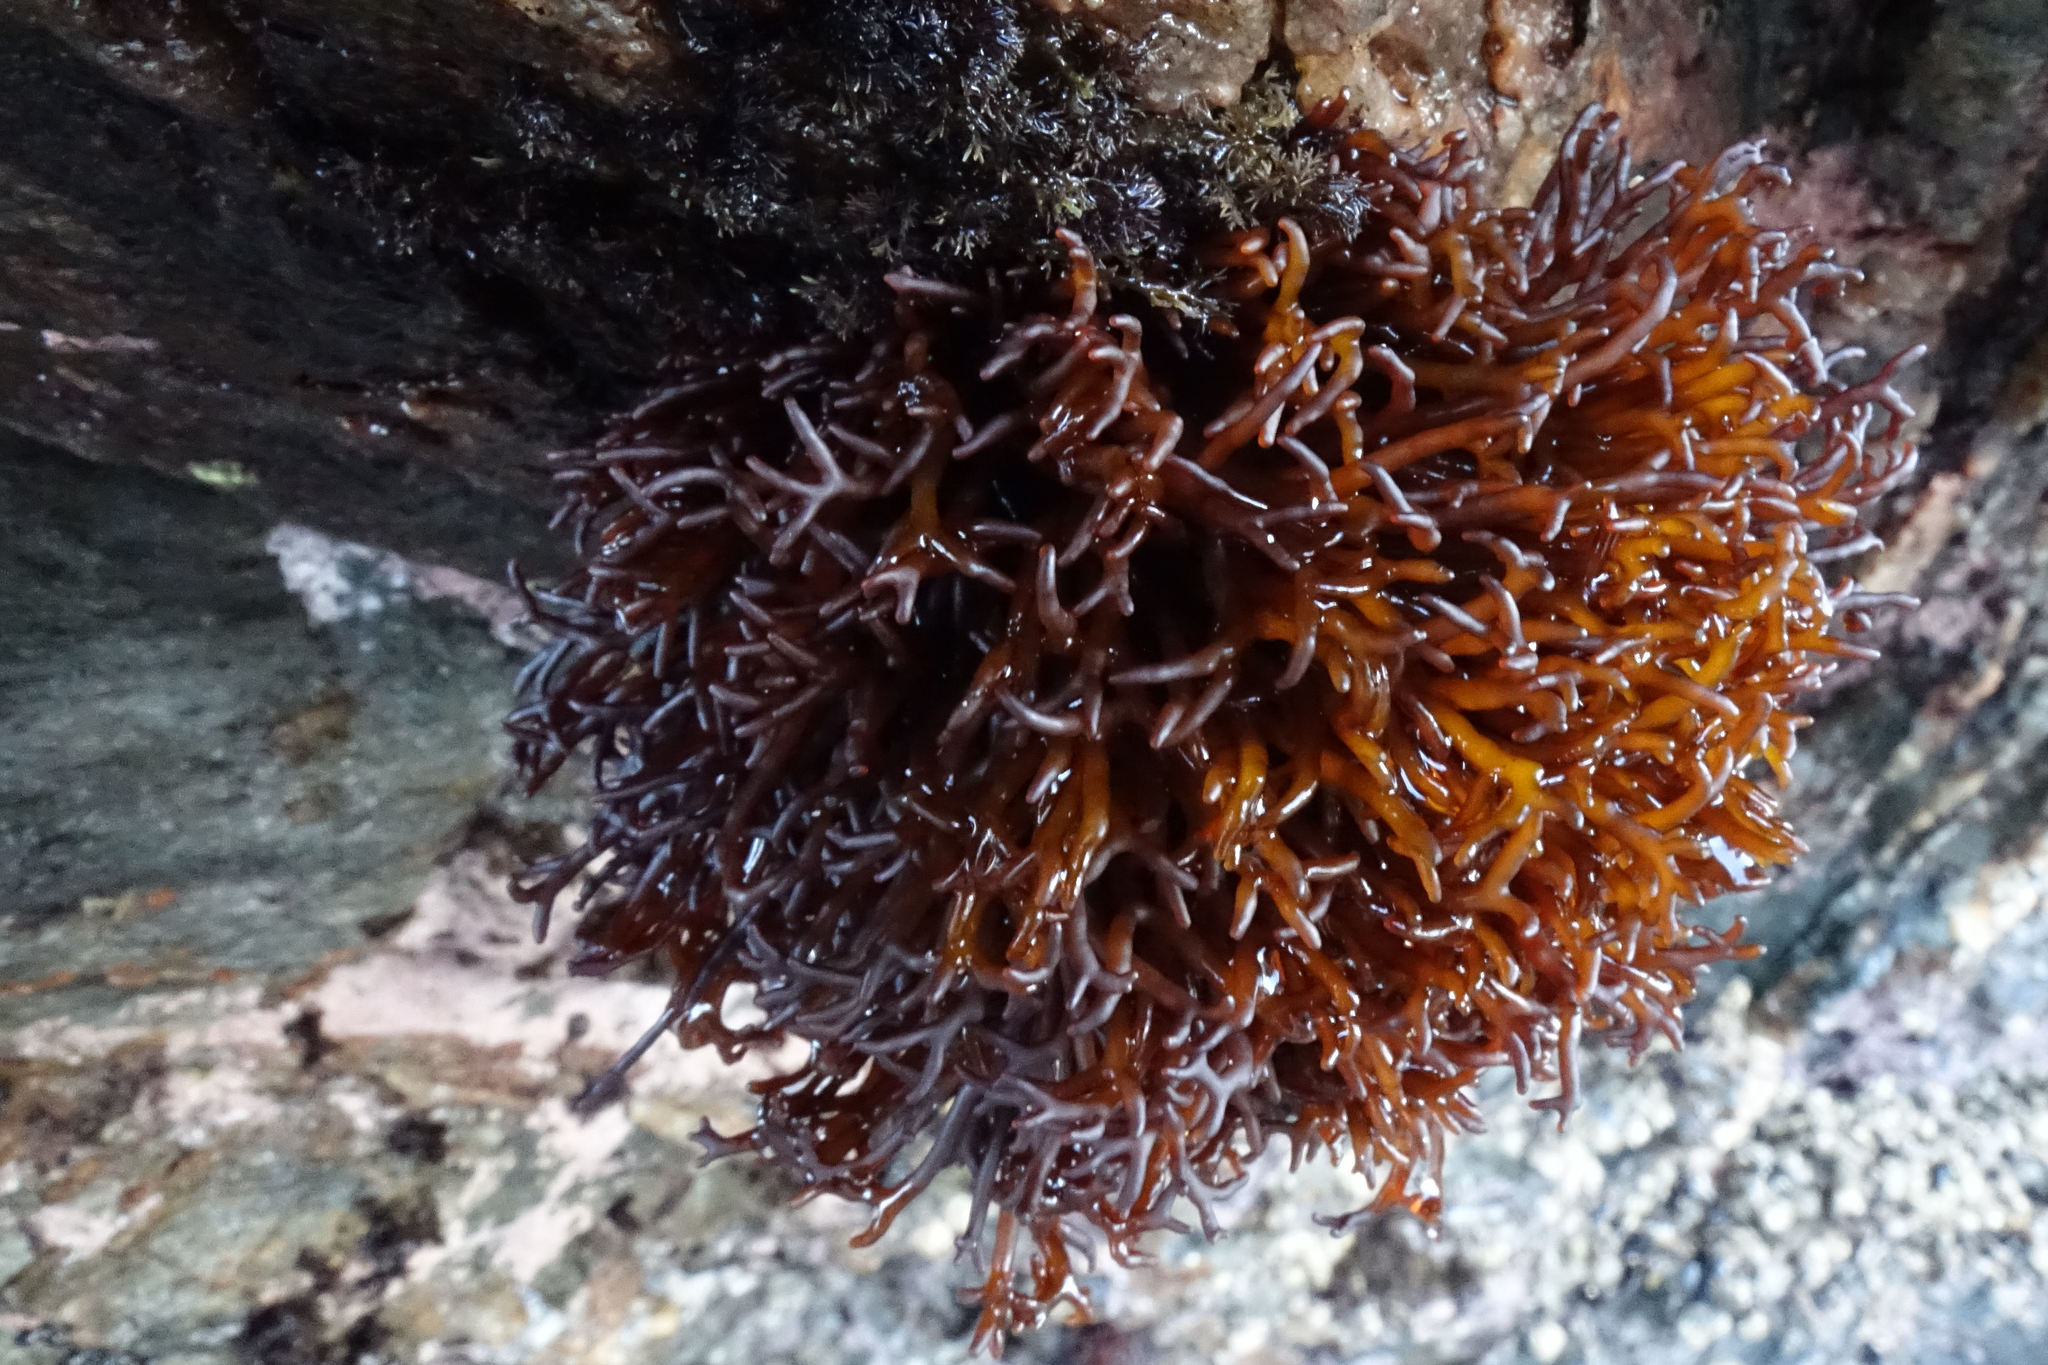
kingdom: Plantae
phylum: Rhodophyta
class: Florideophyceae
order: Hildenbrandiales
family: Hildenbrandiaceae
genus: Apophlaea
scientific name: Apophlaea lyallii
